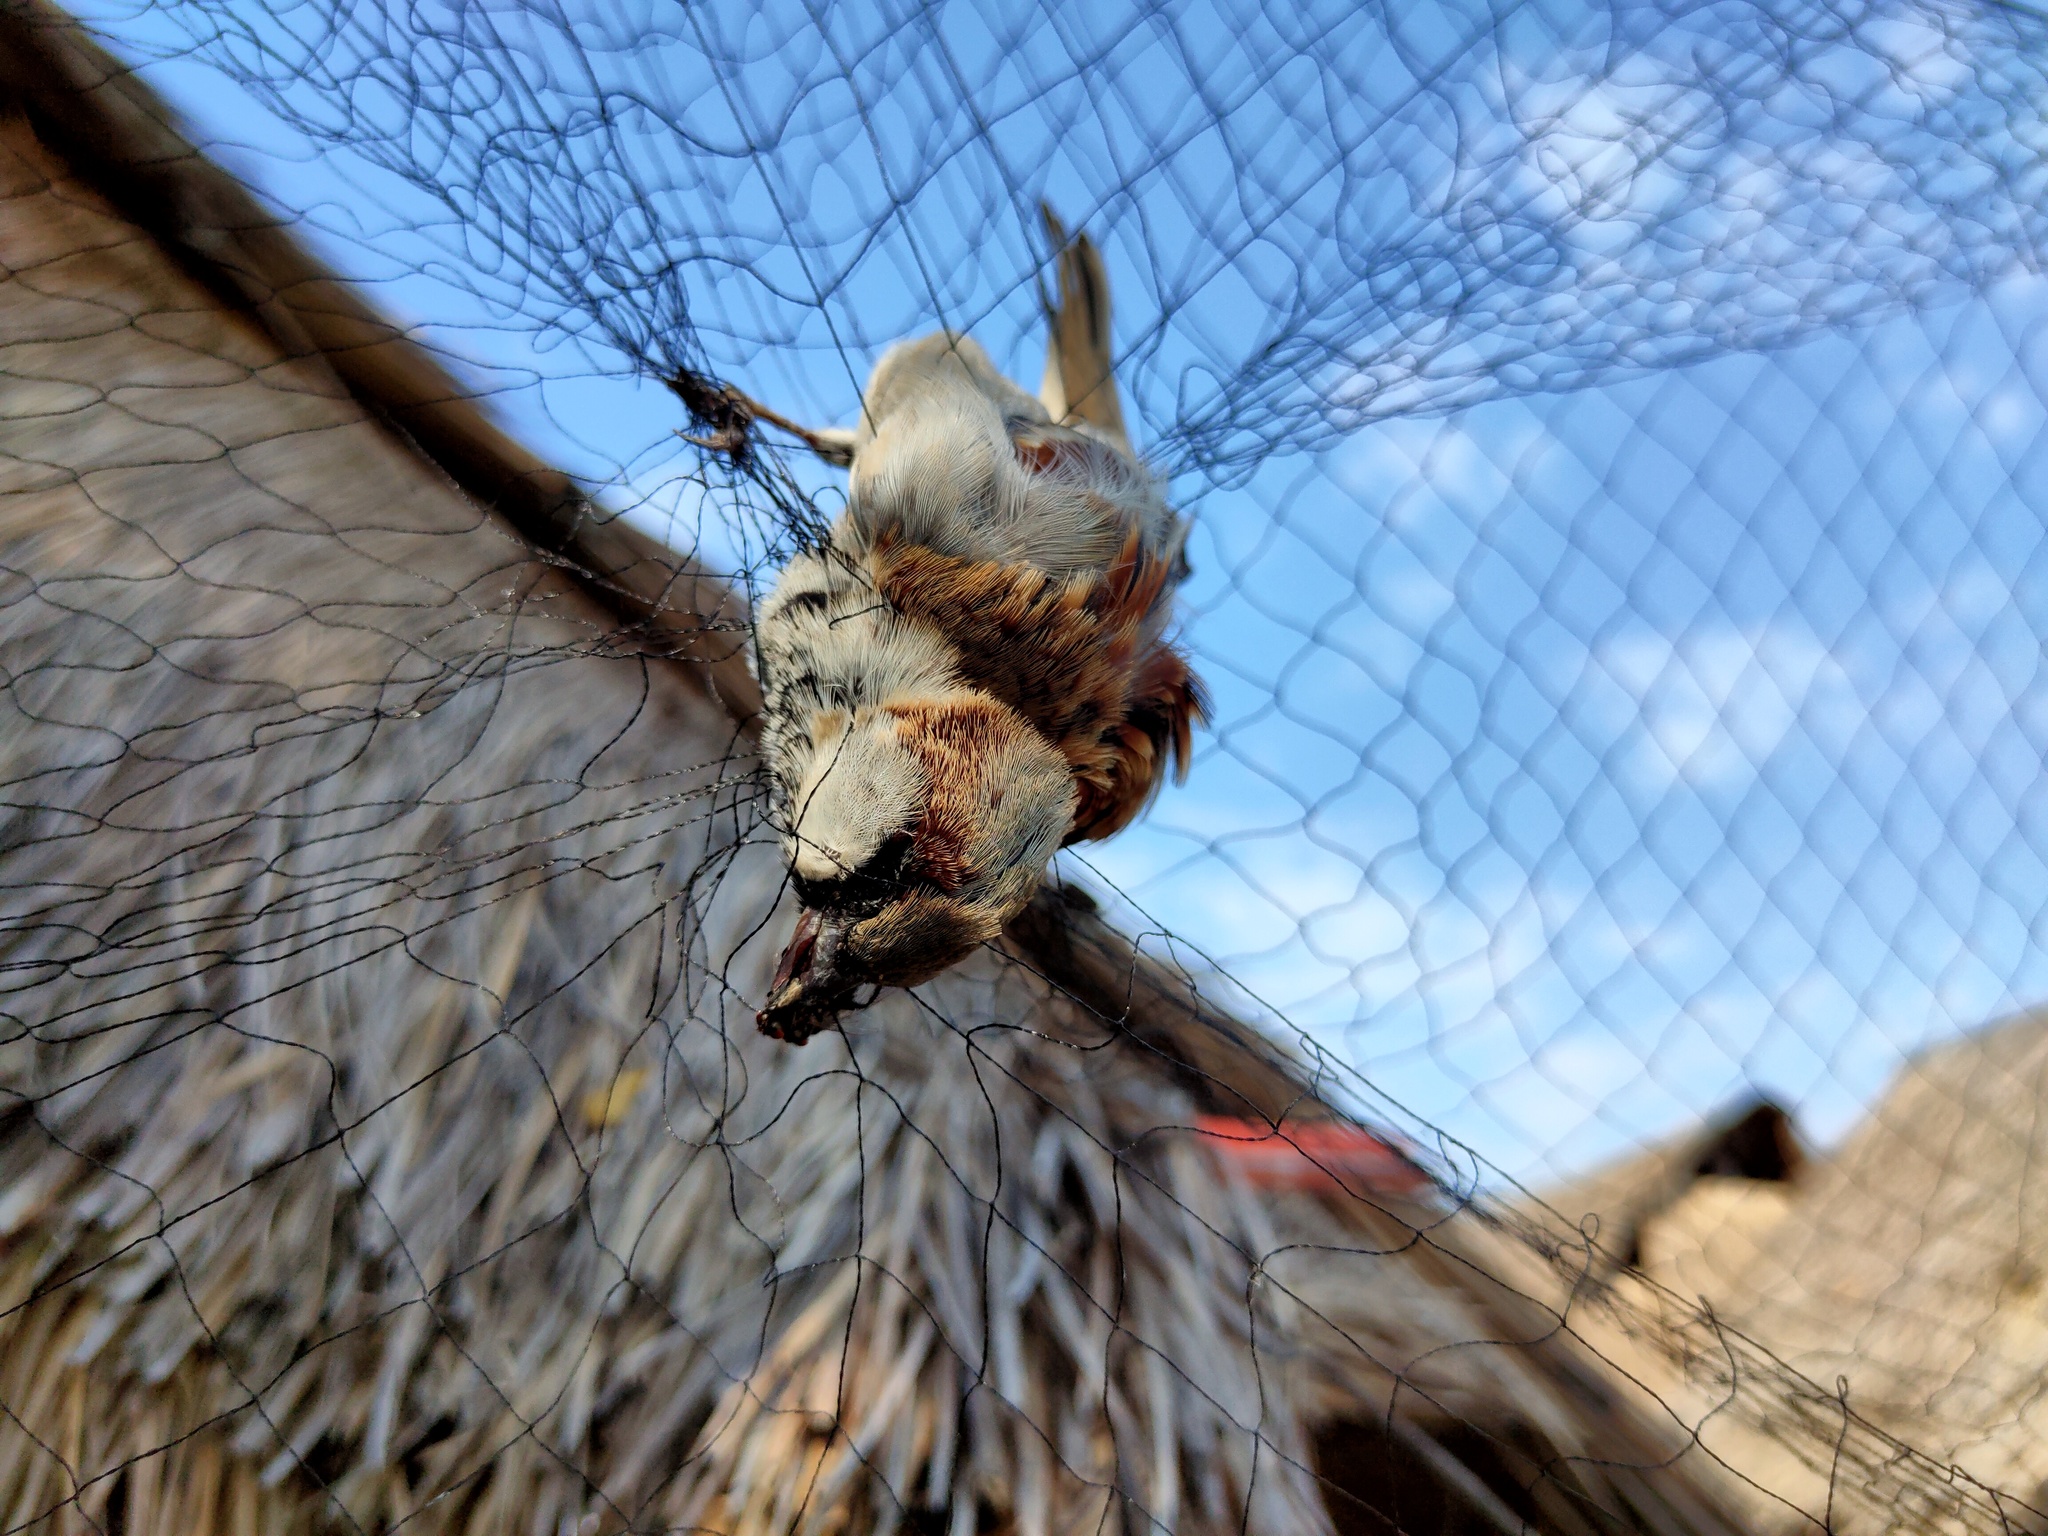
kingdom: Animalia
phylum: Chordata
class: Aves
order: Passeriformes
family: Passeridae
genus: Passer
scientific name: Passer domesticus
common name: House sparrow
